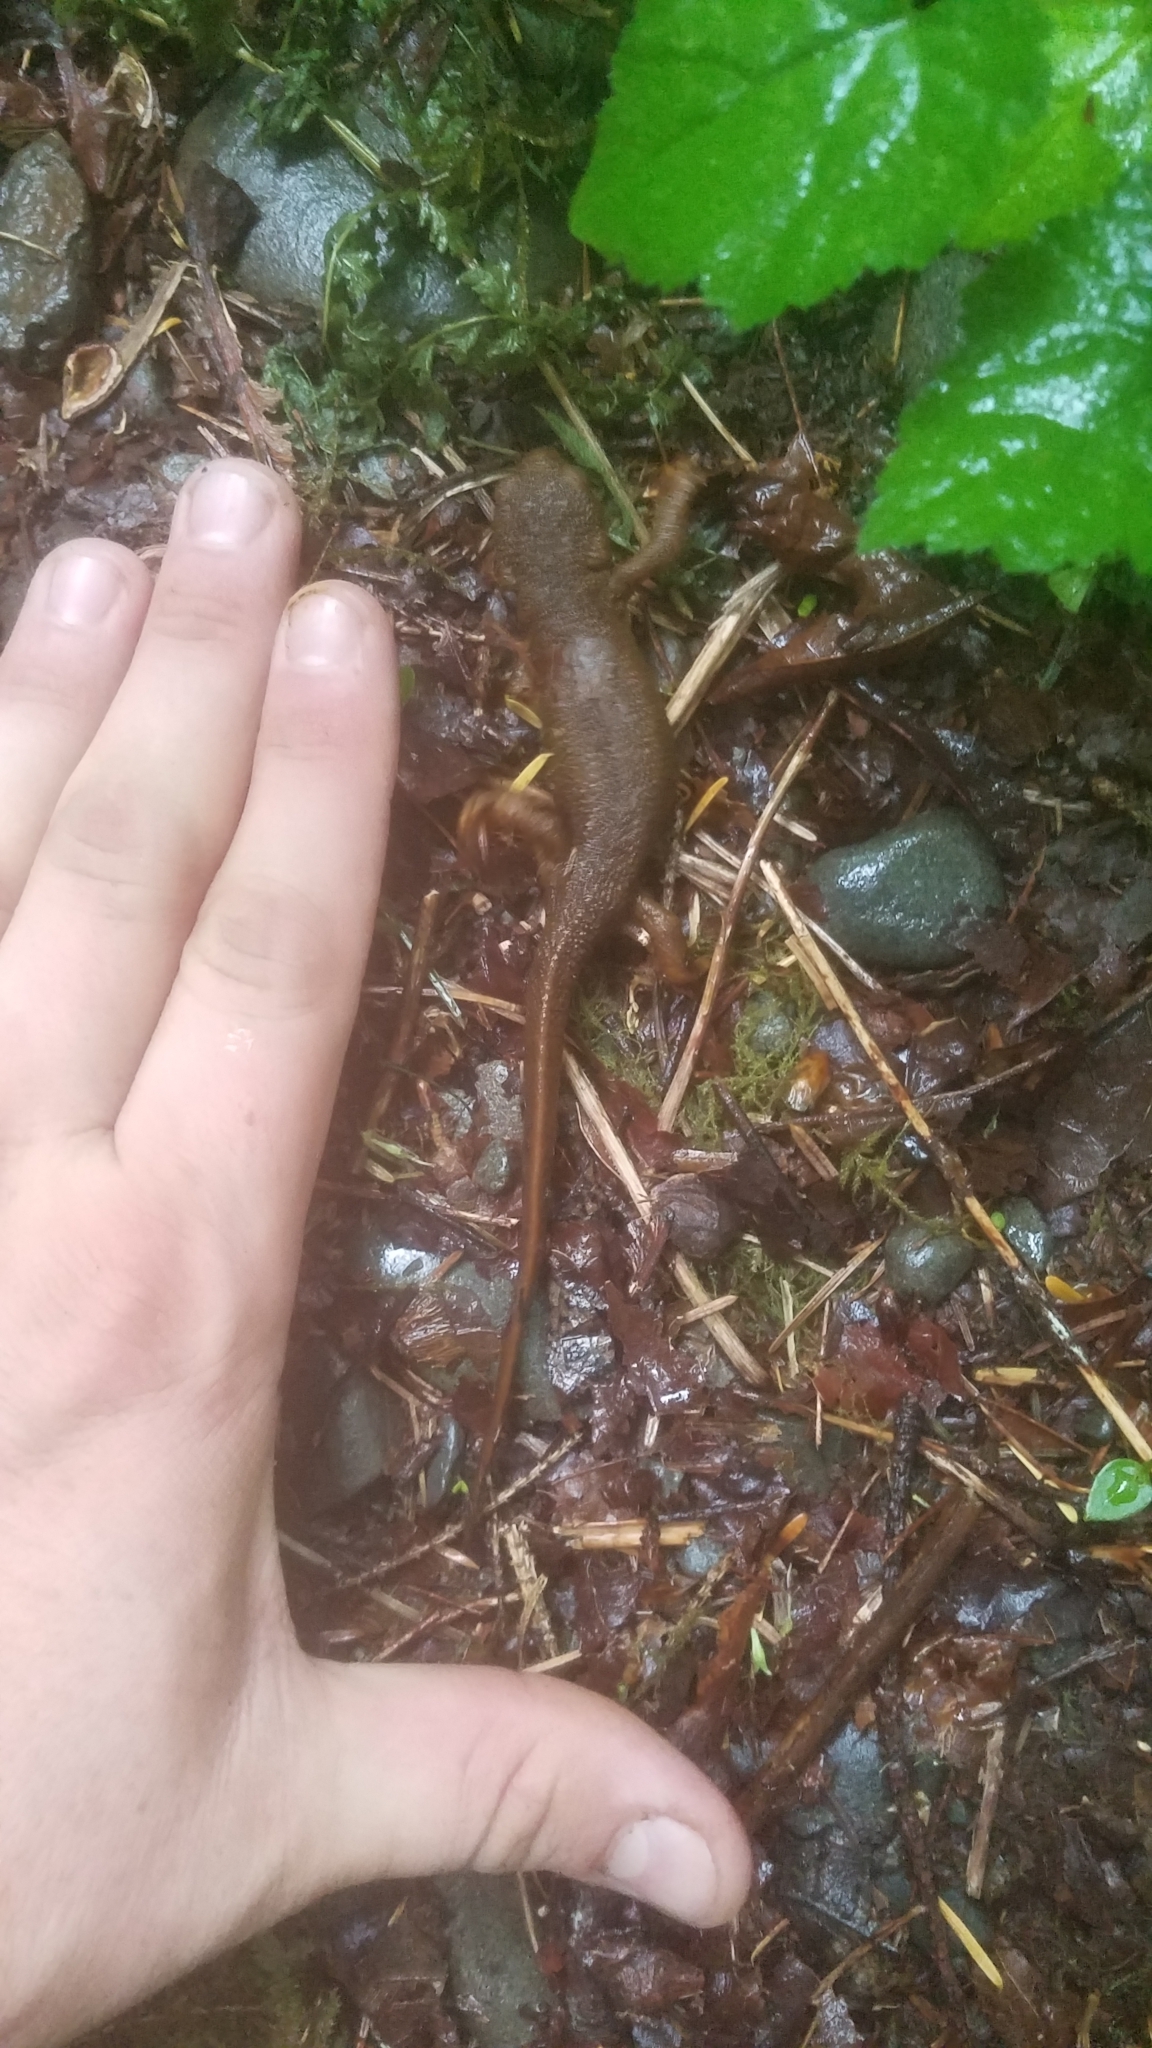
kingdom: Animalia
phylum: Chordata
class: Amphibia
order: Caudata
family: Salamandridae
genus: Taricha
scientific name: Taricha granulosa
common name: Roughskin newt
